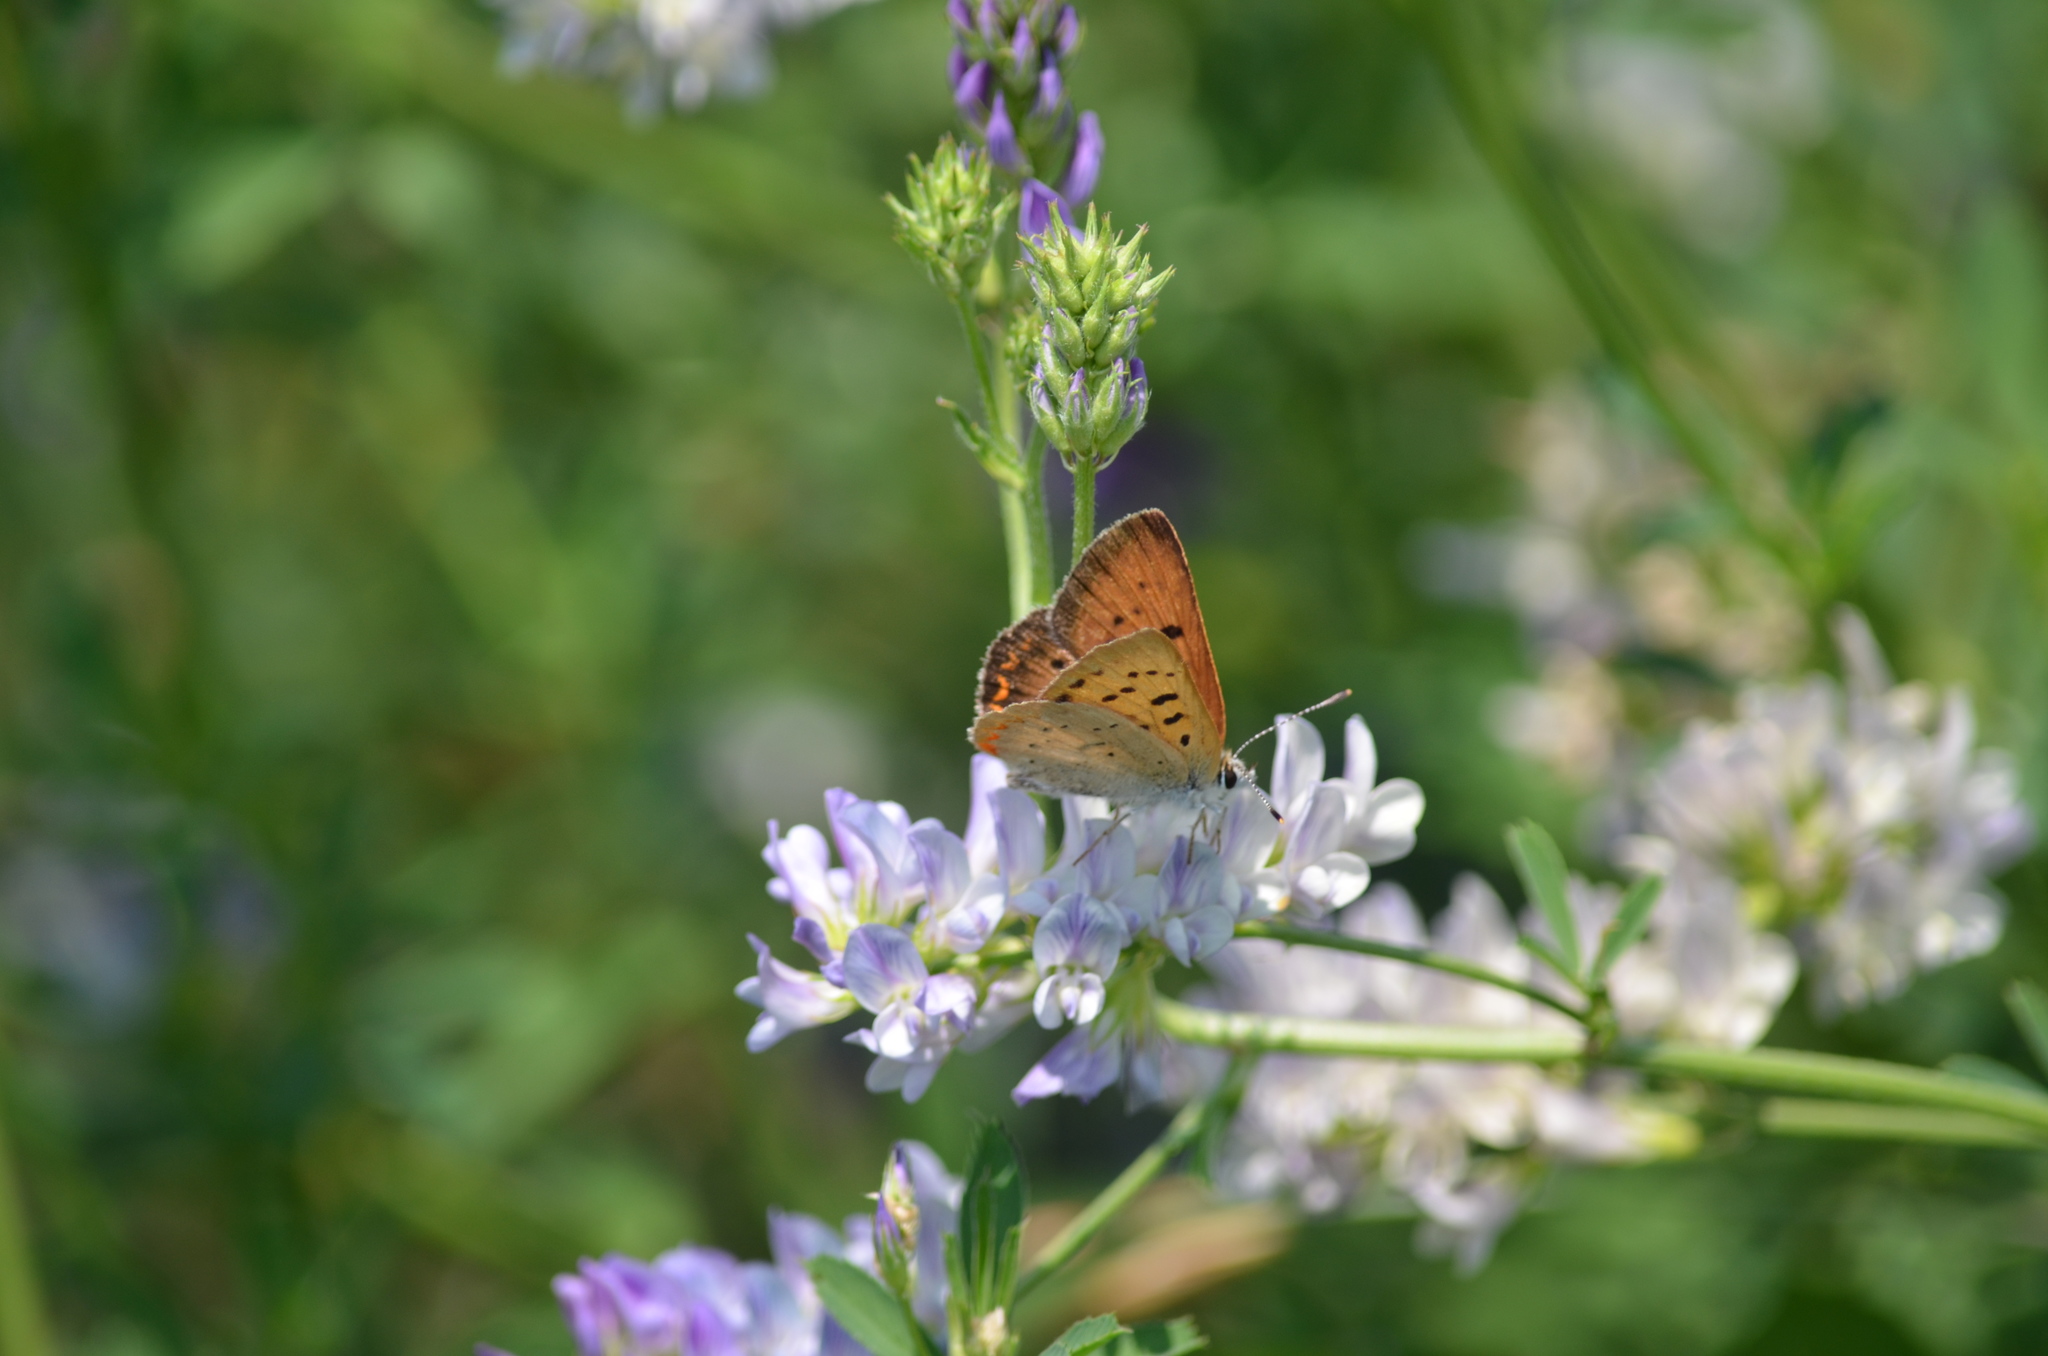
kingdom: Animalia
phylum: Arthropoda
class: Insecta
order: Lepidoptera
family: Lycaenidae
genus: Tharsalea
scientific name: Tharsalea helloides
